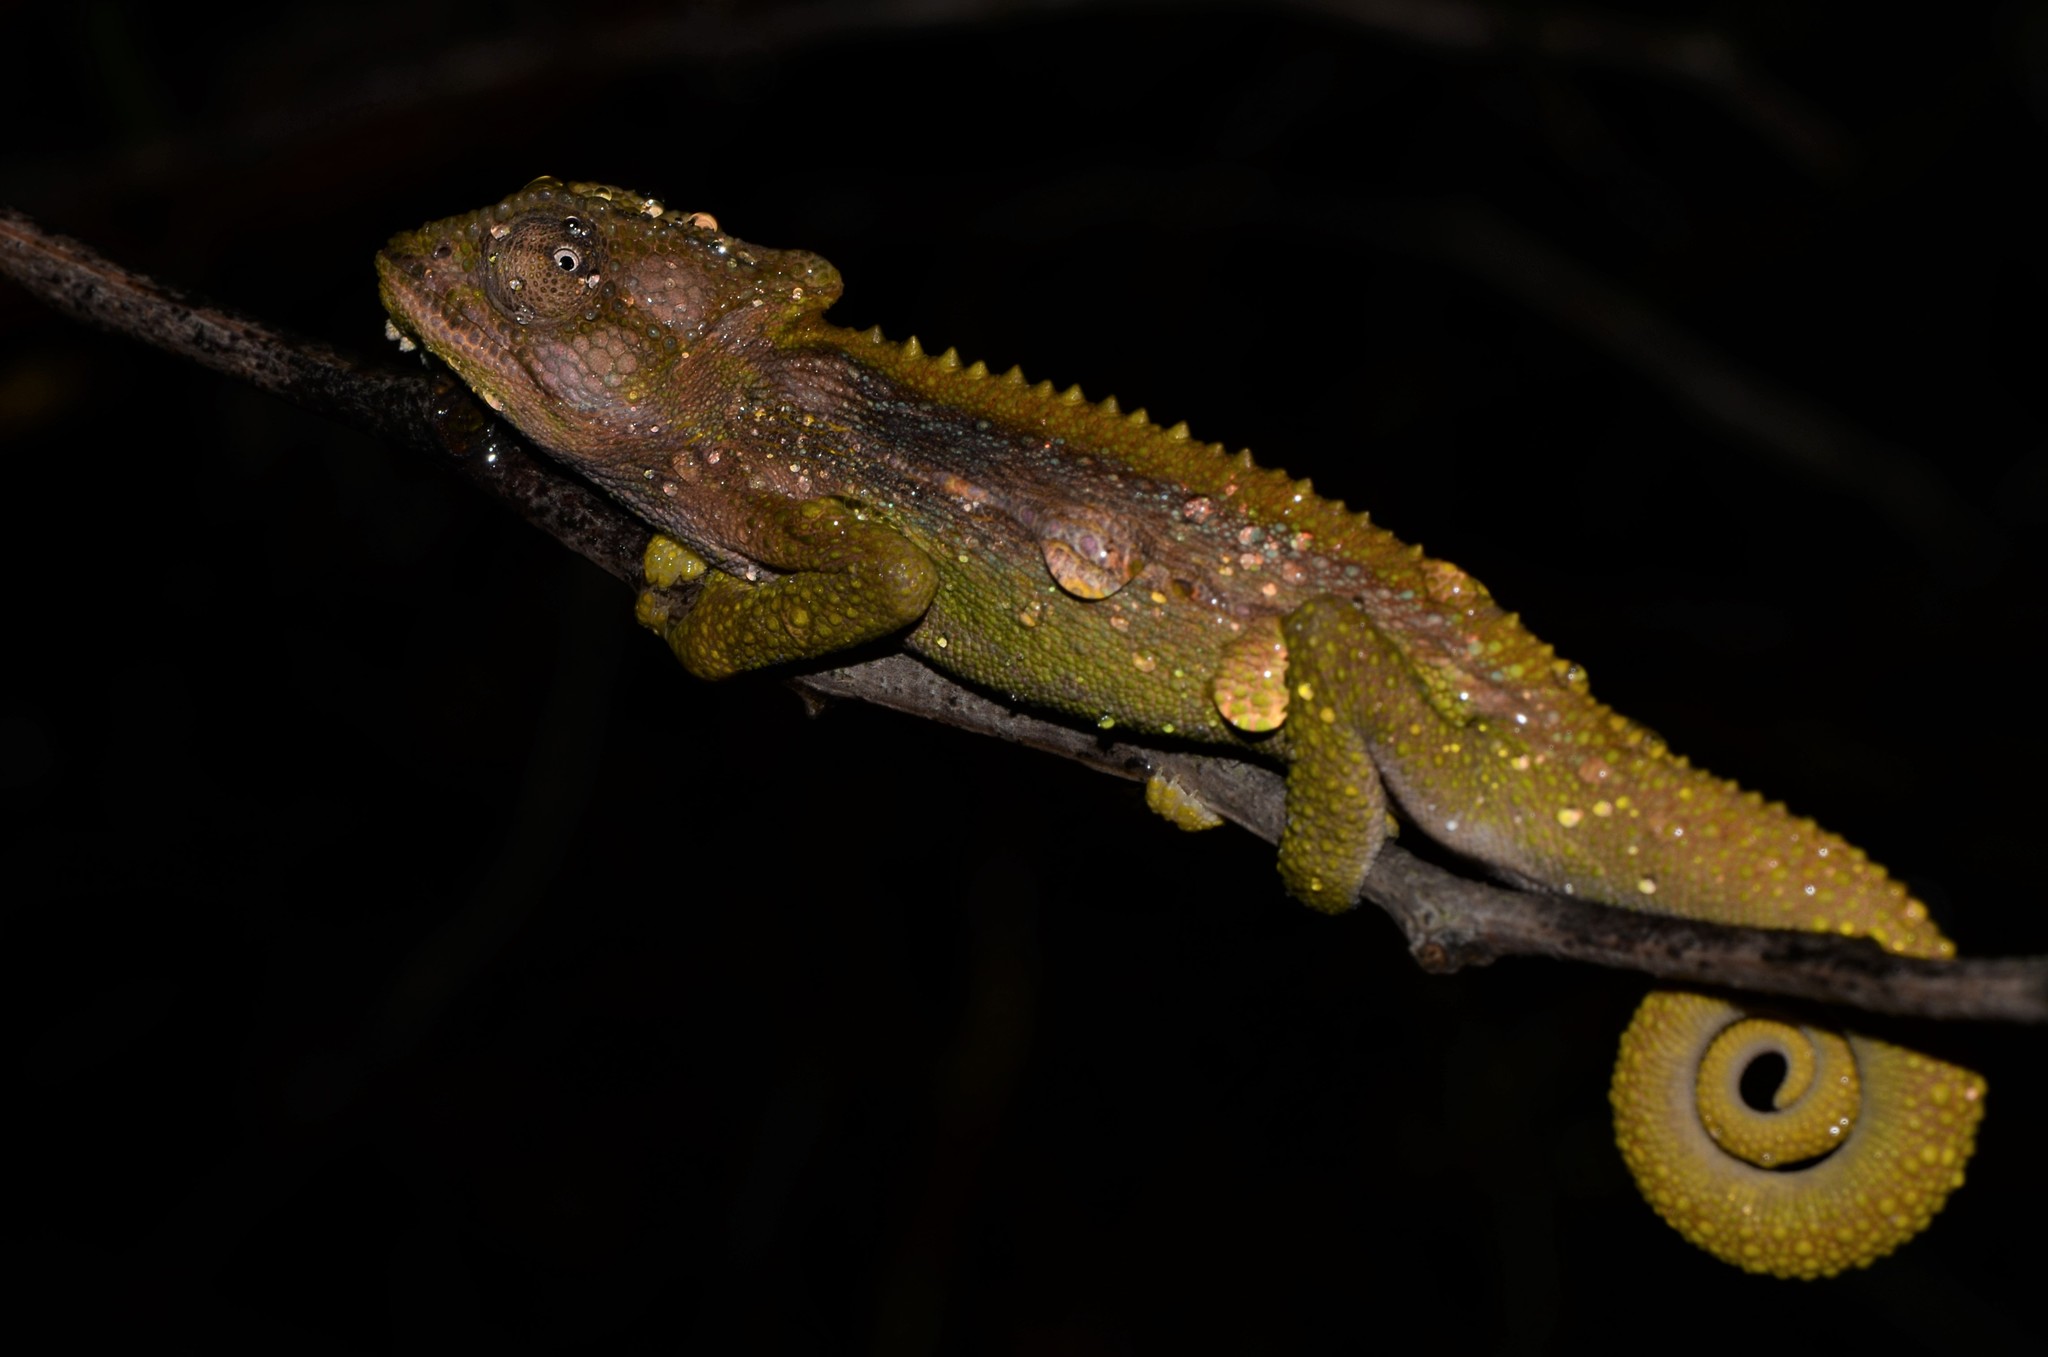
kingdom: Animalia
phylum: Chordata
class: Squamata
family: Chamaeleonidae
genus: Bradypodion
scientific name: Bradypodion pumilum
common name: Cape dwarf chameleon
